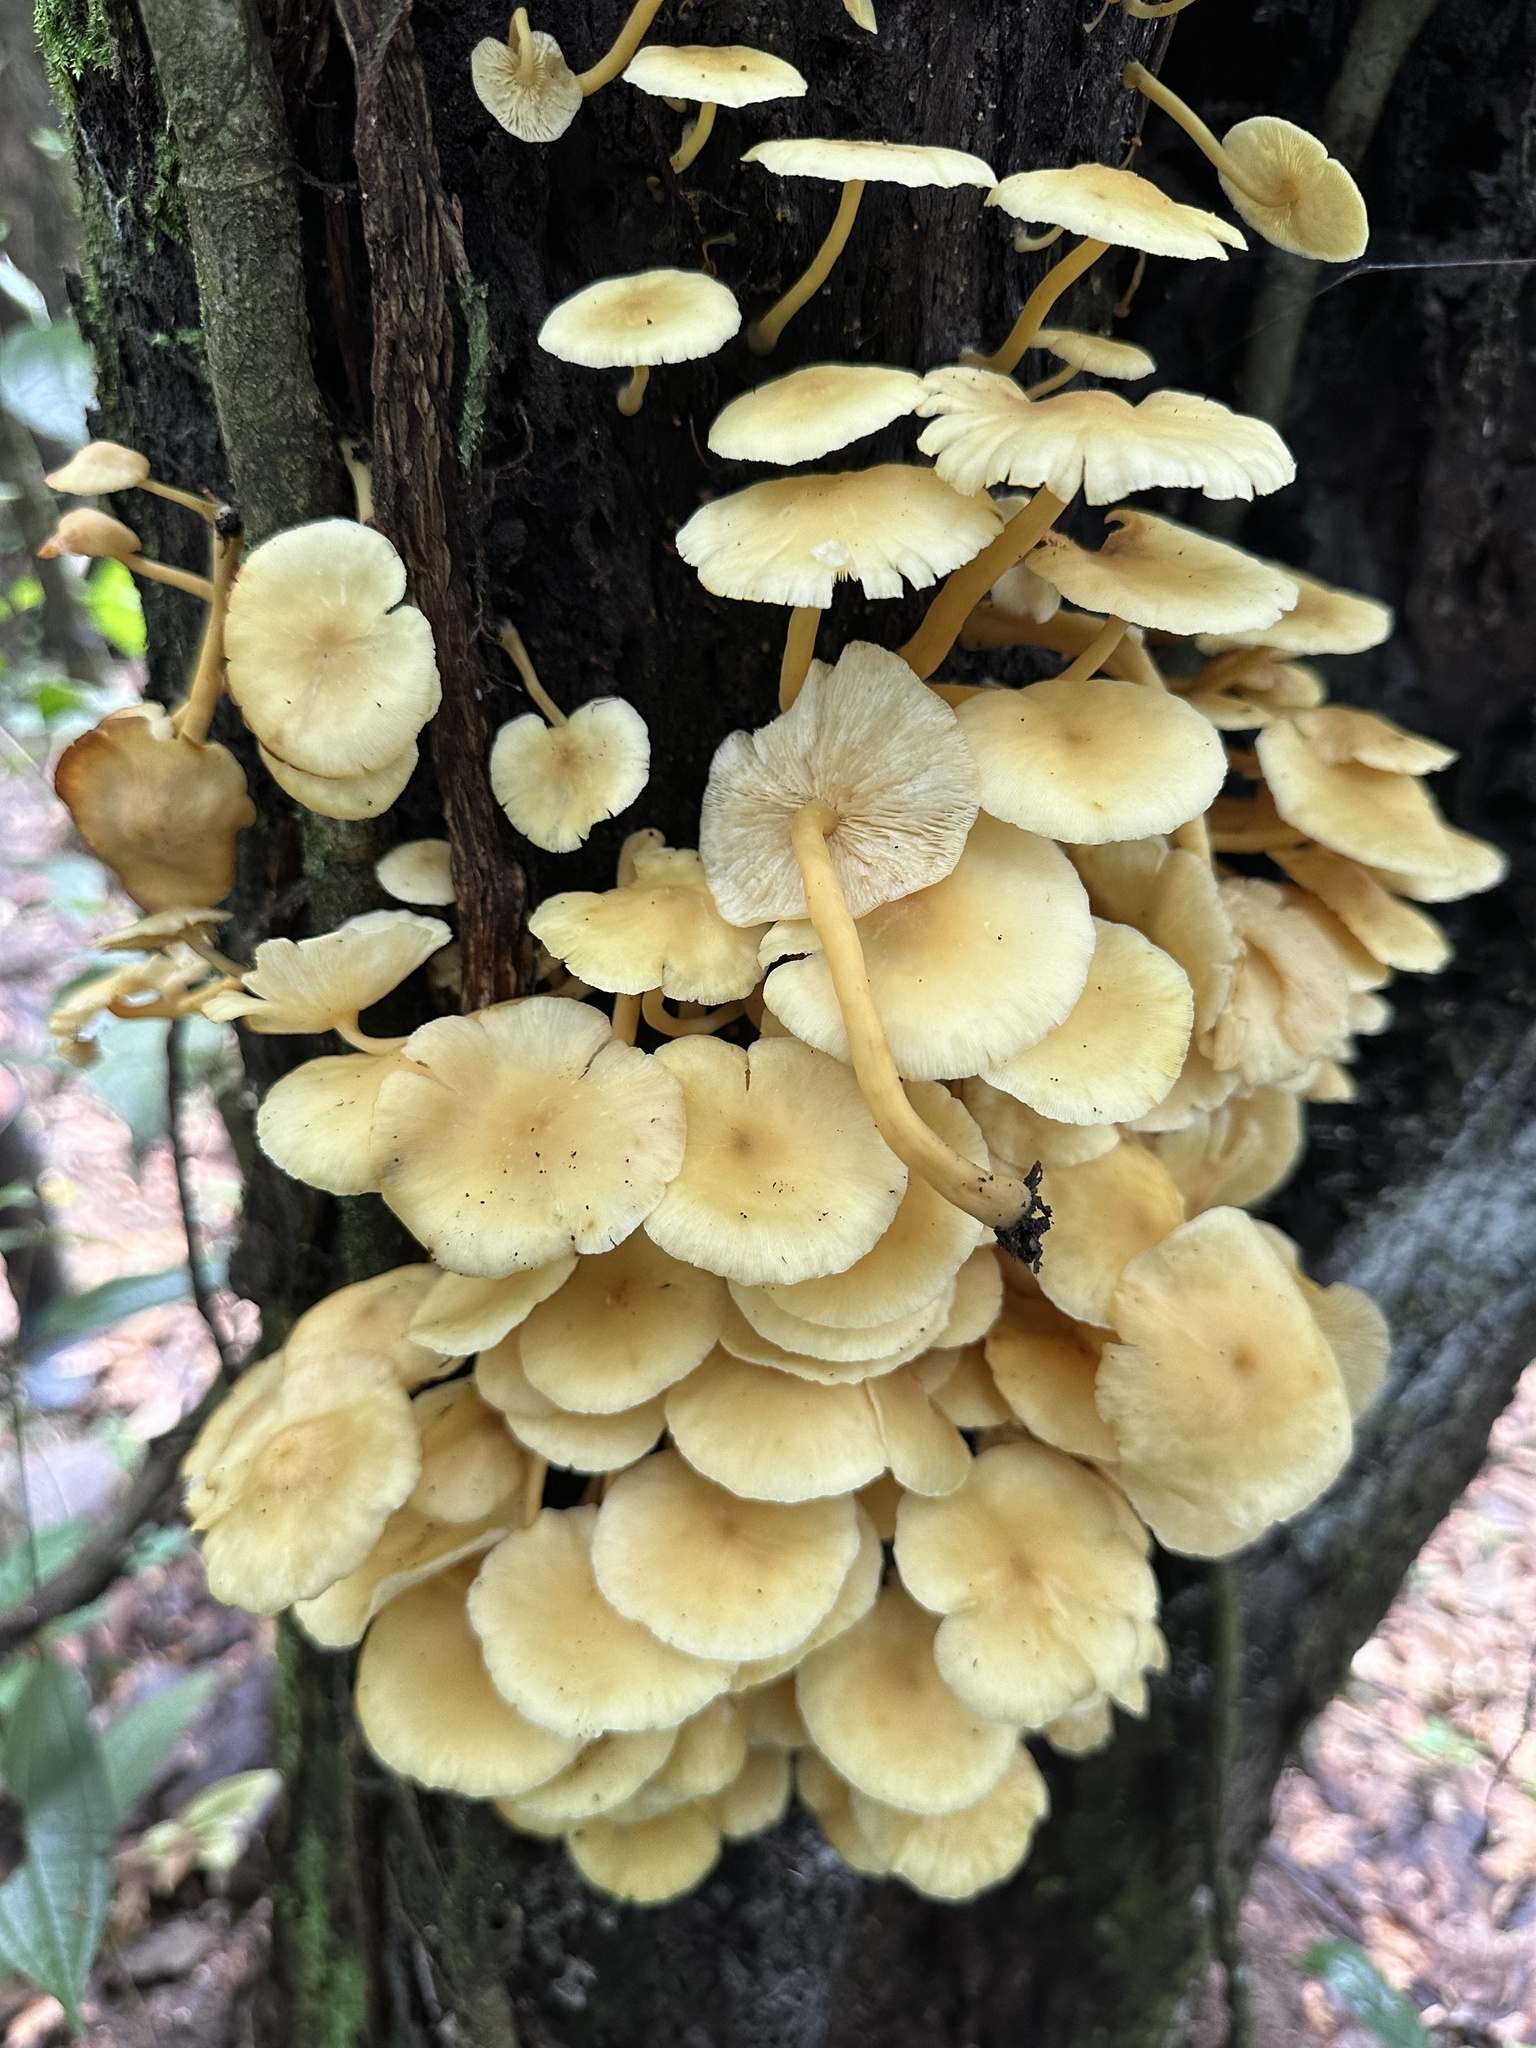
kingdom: Fungi
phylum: Basidiomycota
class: Agaricomycetes
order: Agaricales
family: Tricholomataceae
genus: Tricholomopsis
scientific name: Tricholomopsis aurea
